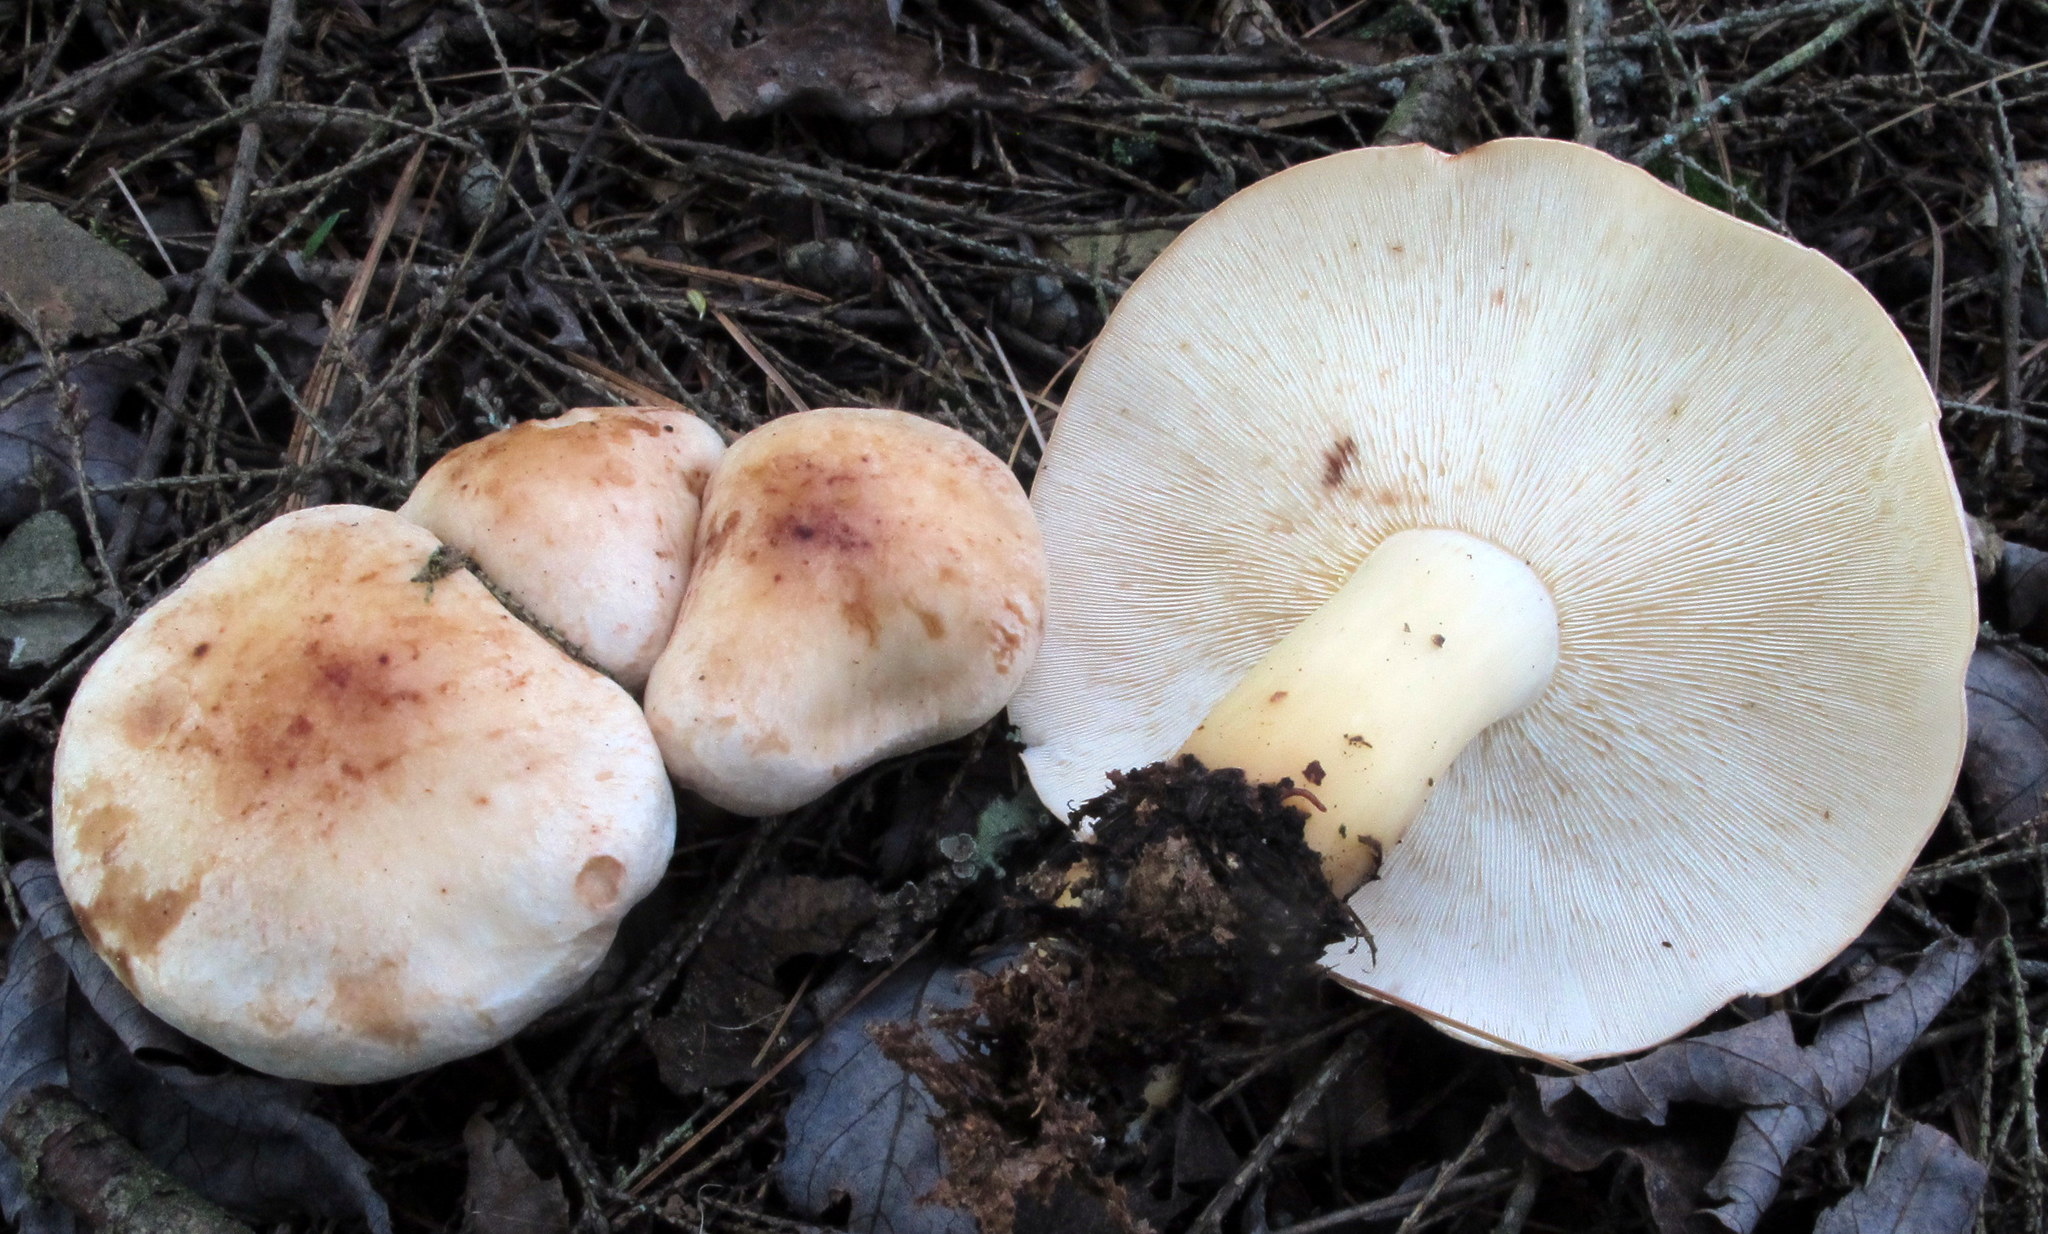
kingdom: Fungi
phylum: Basidiomycota
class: Agaricomycetes
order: Agaricales
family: Omphalotaceae
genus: Rhodocollybia
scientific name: Rhodocollybia maculata
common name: Spotted tough-shank
